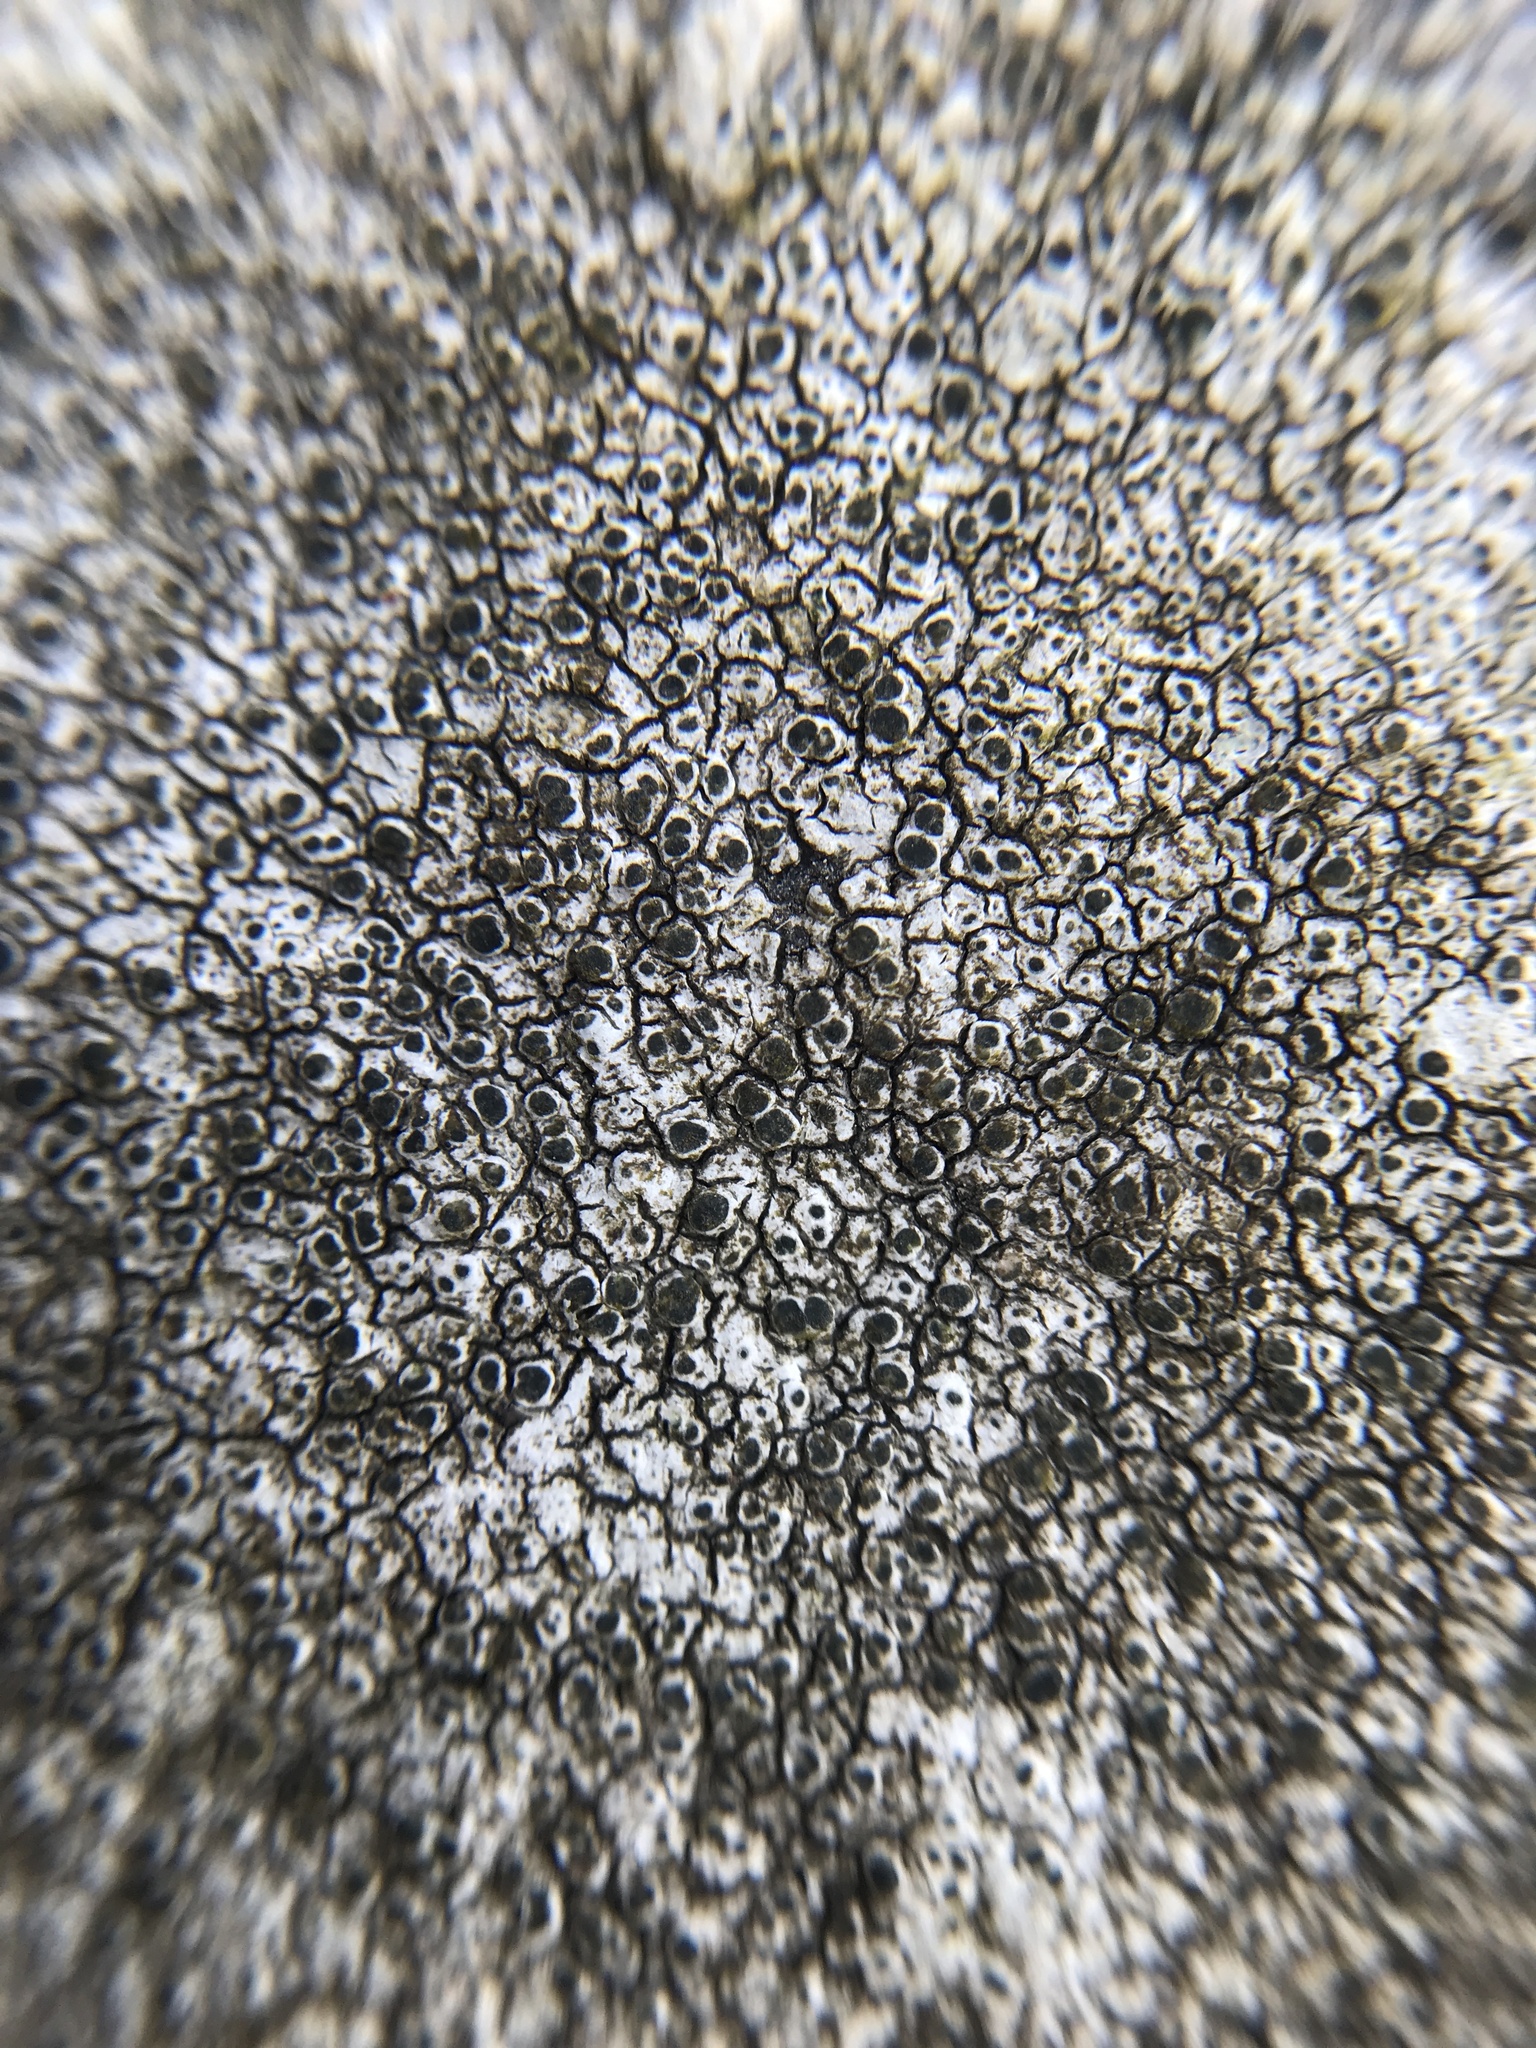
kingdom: Fungi
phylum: Ascomycota
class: Lecanoromycetes
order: Pertusariales
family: Megasporaceae
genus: Aspicilia
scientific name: Aspicilia cinerea
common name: Cinder lichen
